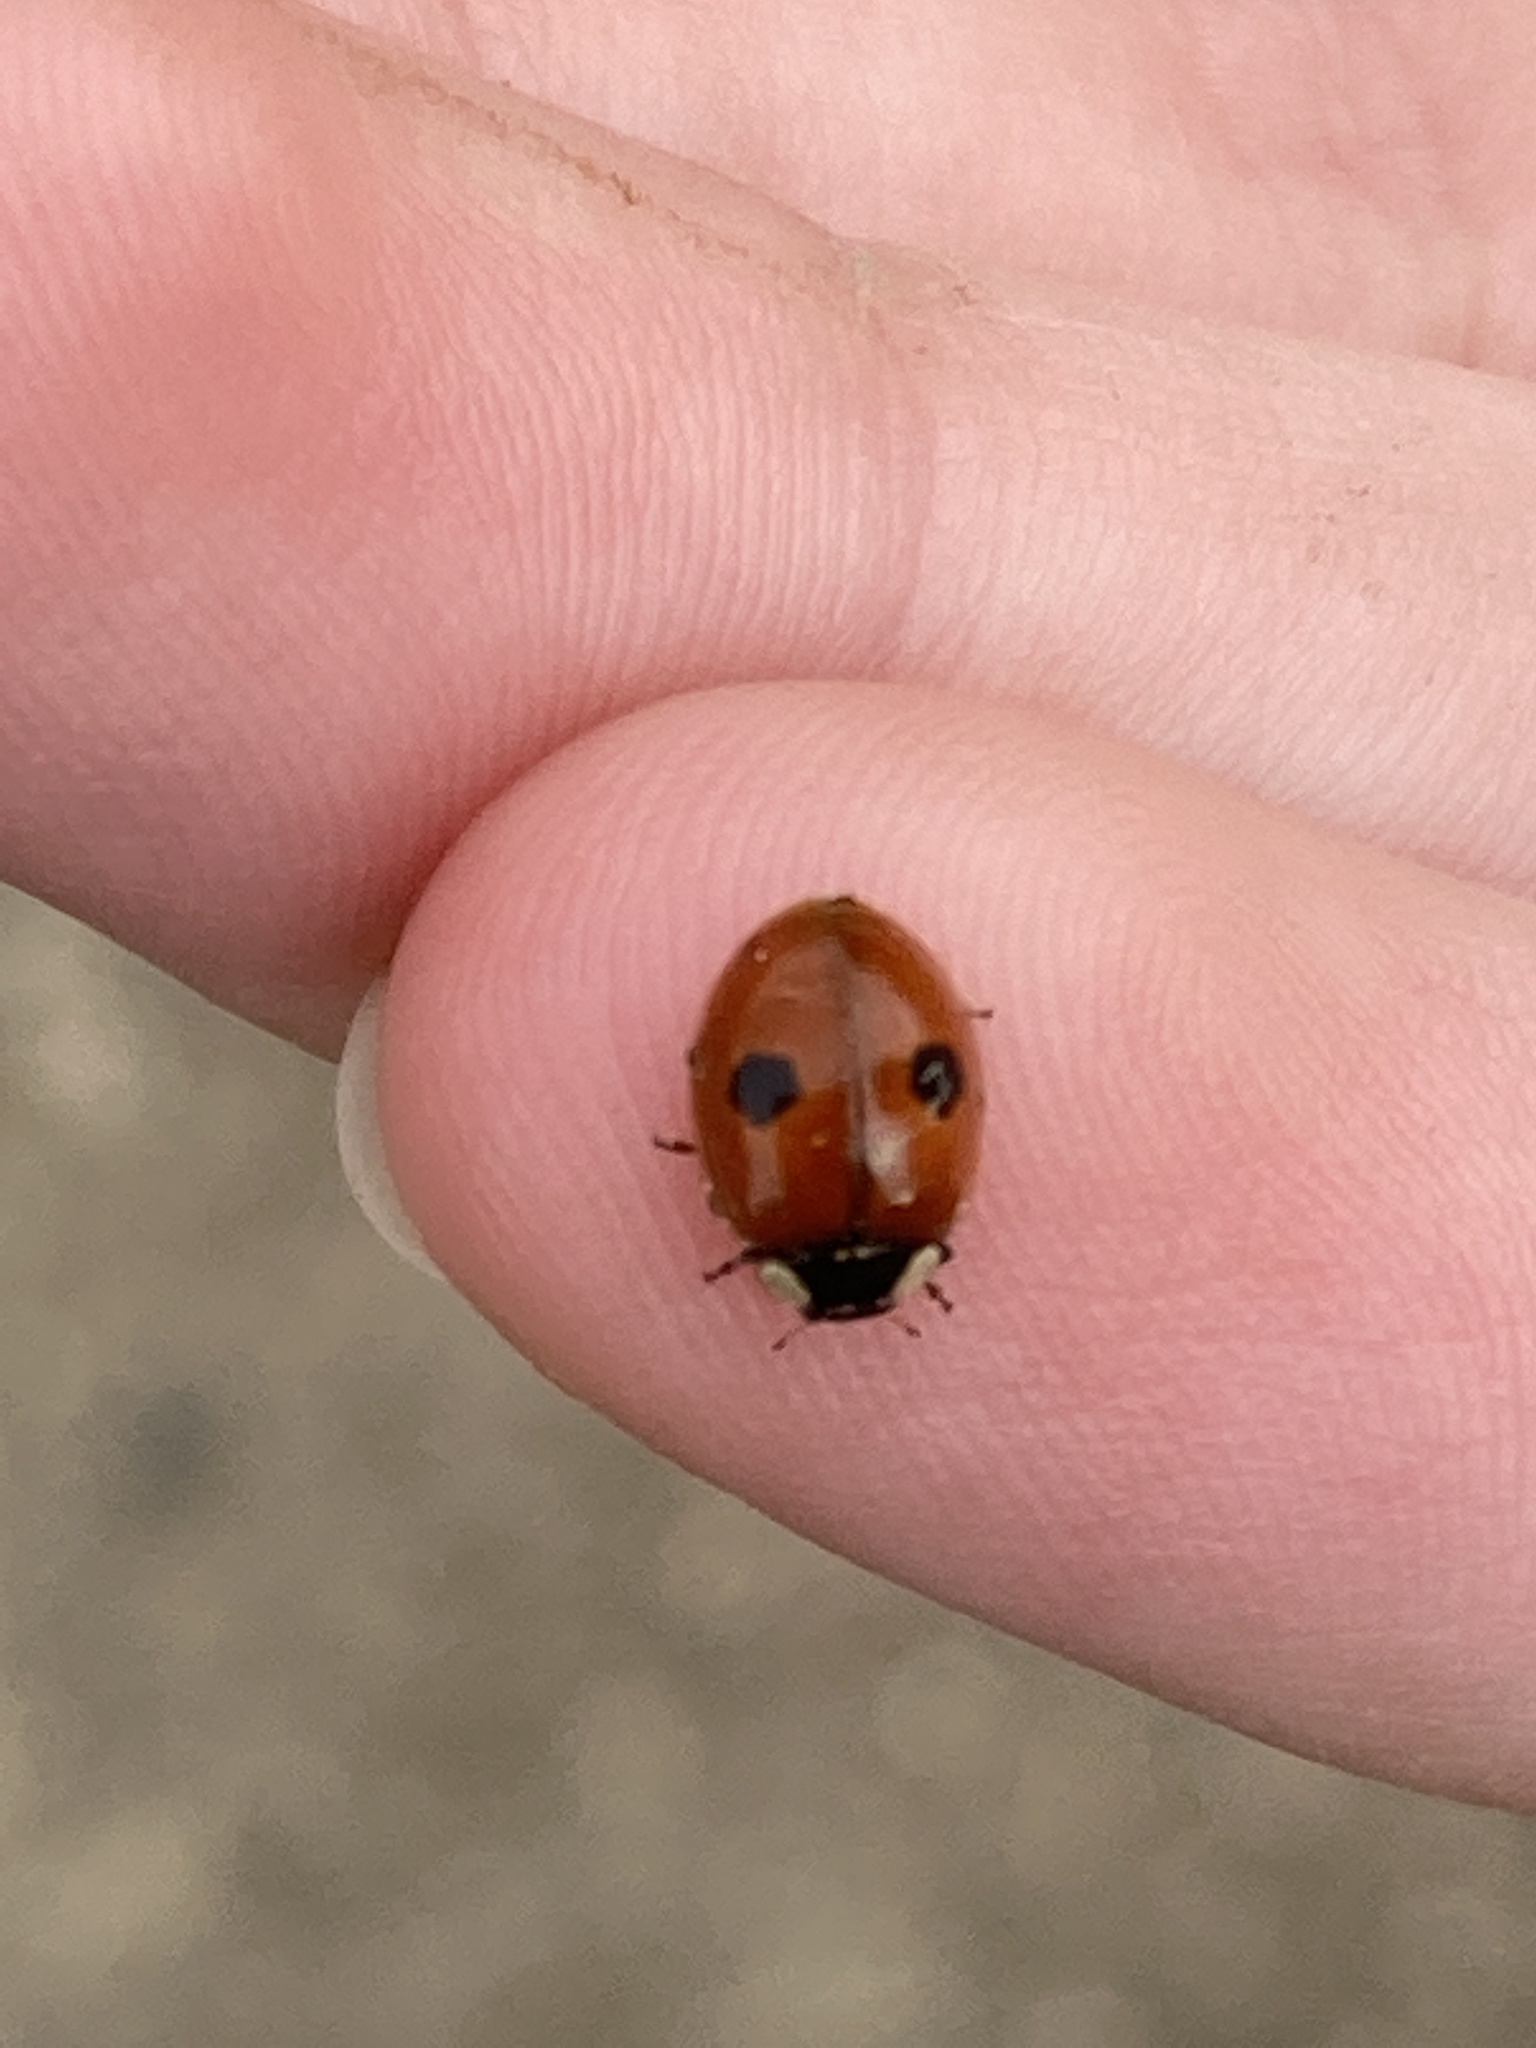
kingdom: Animalia
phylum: Arthropoda
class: Insecta
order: Coleoptera
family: Coccinellidae
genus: Adalia
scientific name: Adalia bipunctata
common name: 2-spot ladybird
